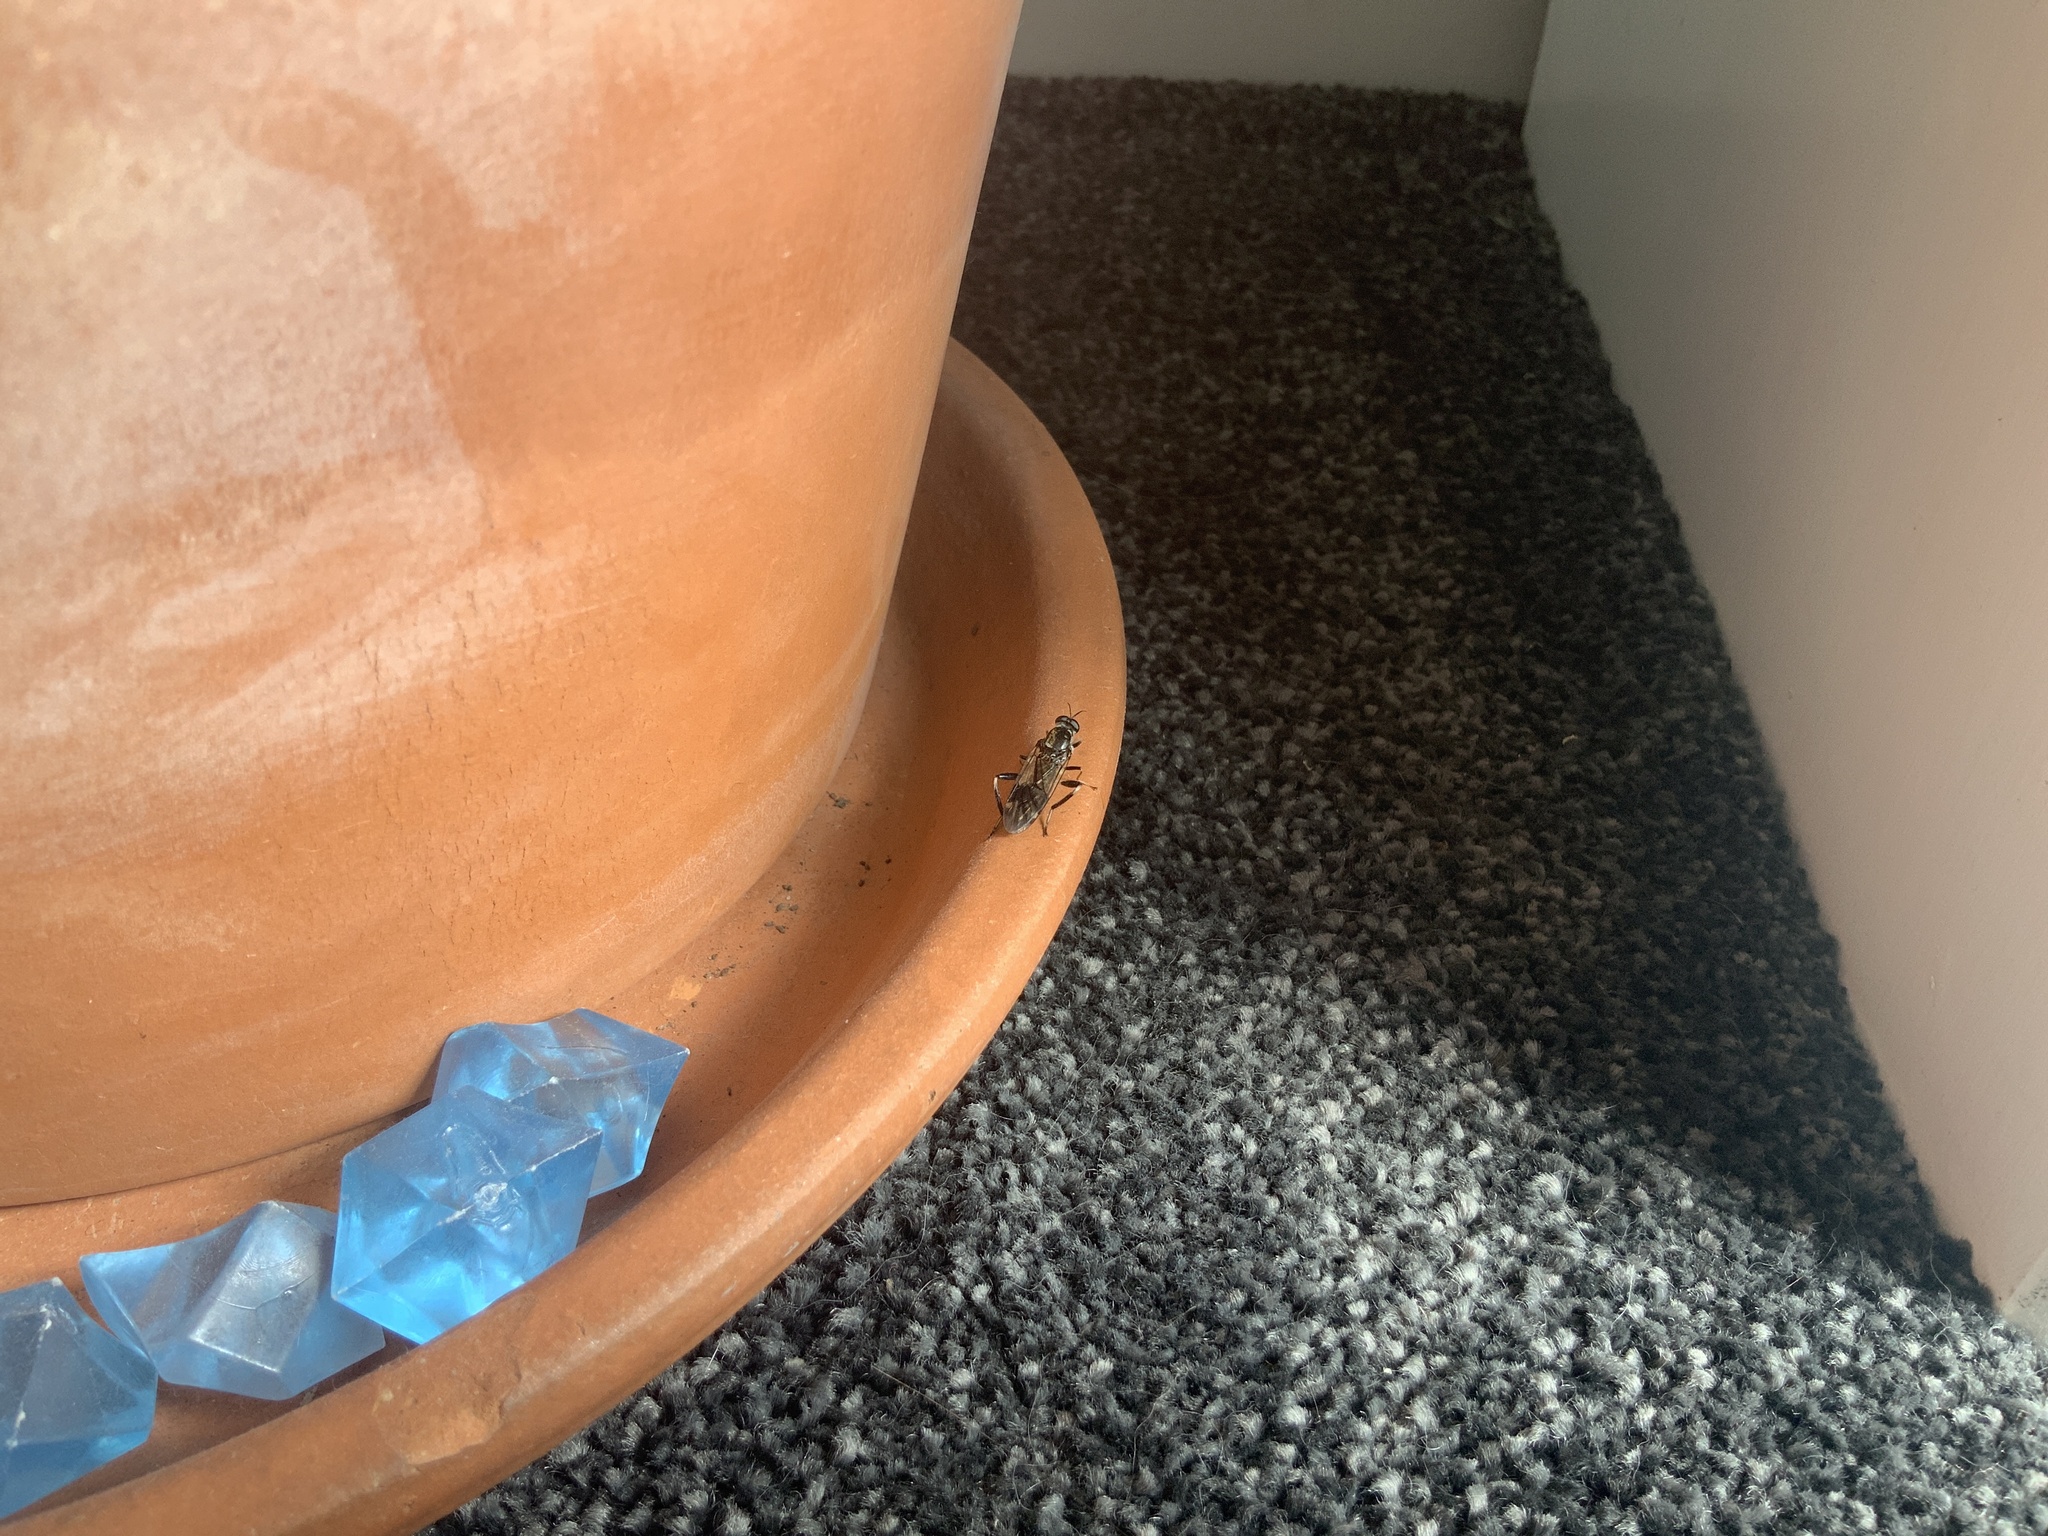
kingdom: Animalia
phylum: Arthropoda
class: Insecta
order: Diptera
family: Stratiomyidae
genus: Exaireta
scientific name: Exaireta spinigera
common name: Blue soldier fly
